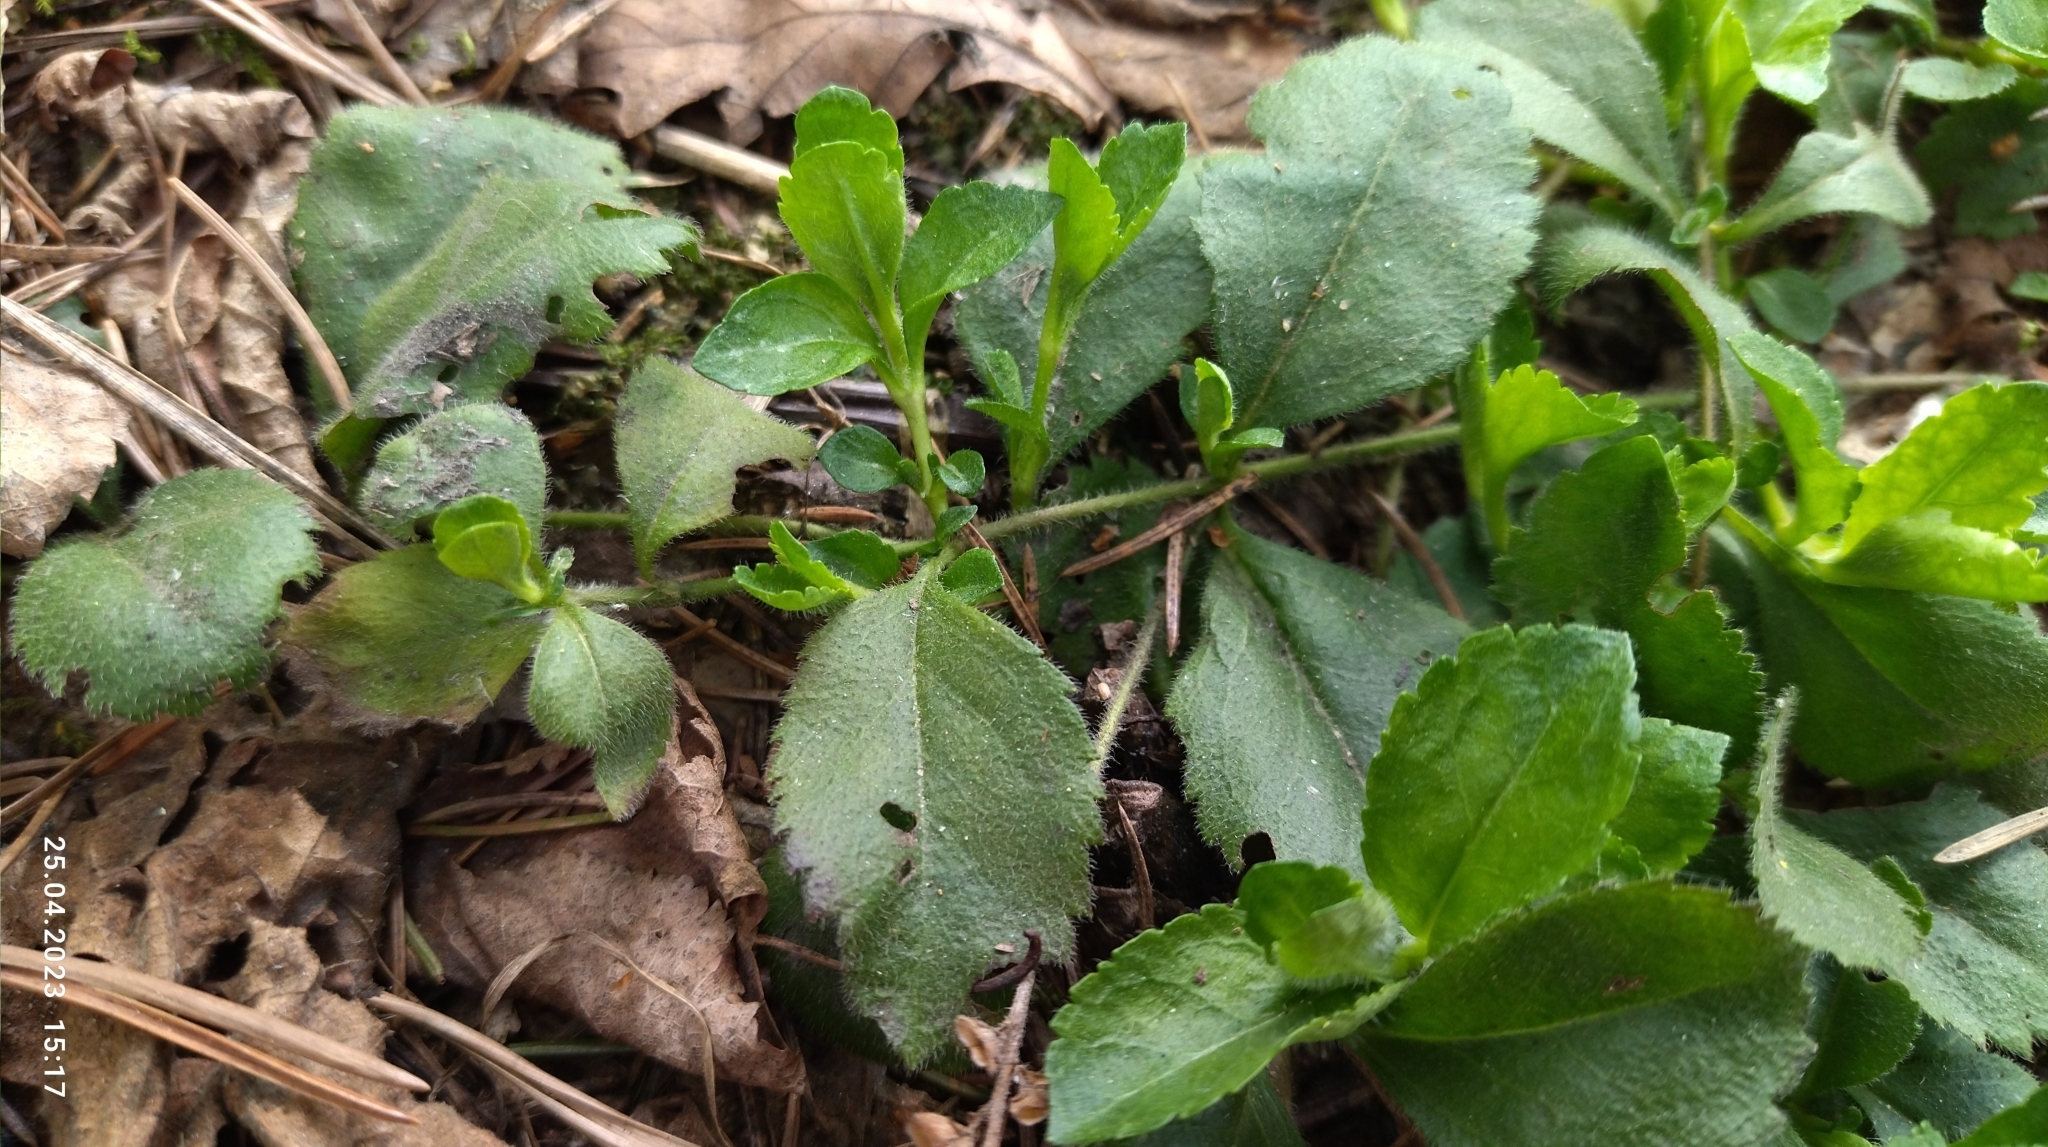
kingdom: Plantae
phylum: Tracheophyta
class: Magnoliopsida
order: Lamiales
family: Plantaginaceae
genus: Veronica
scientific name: Veronica officinalis
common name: Common speedwell
